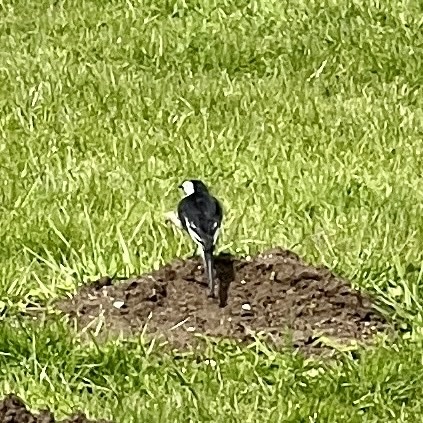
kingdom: Animalia
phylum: Chordata
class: Aves
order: Passeriformes
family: Motacillidae
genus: Motacilla
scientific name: Motacilla alba
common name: White wagtail
